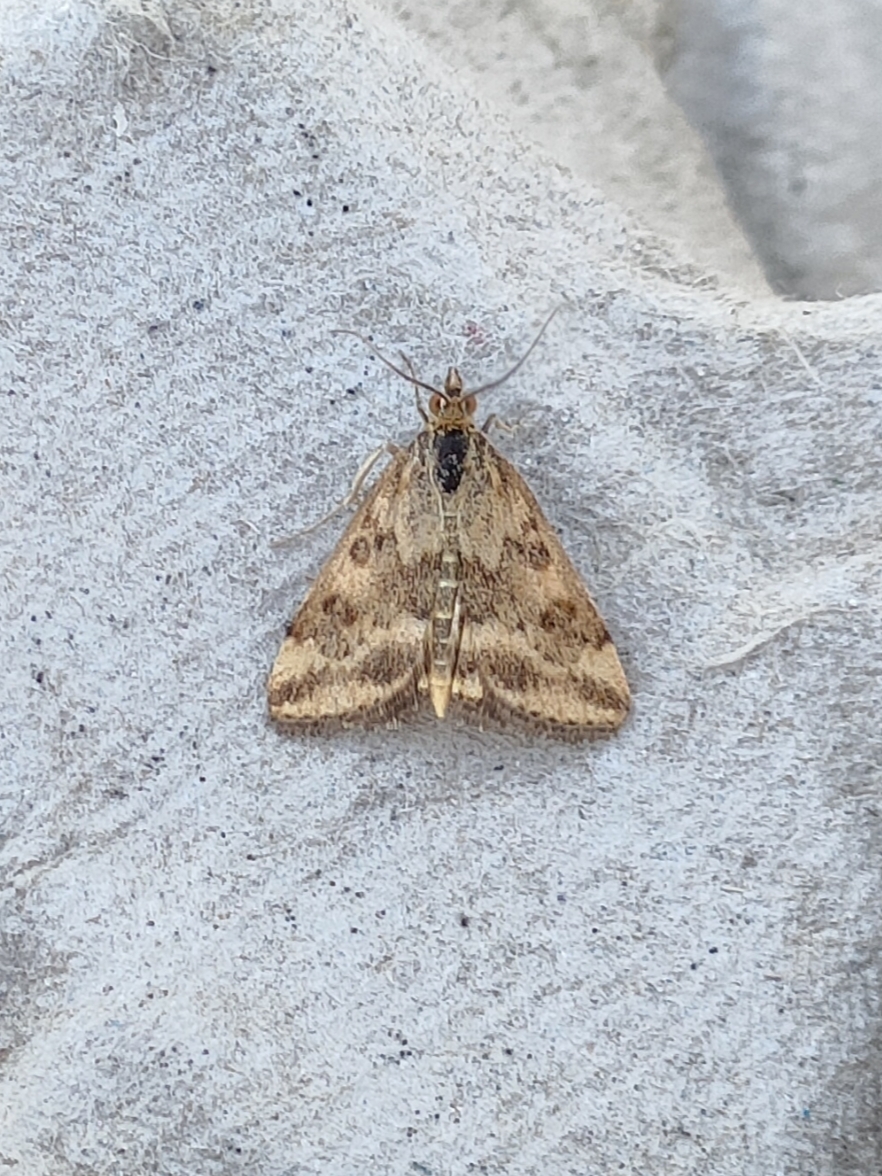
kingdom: Animalia
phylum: Arthropoda
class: Insecta
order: Lepidoptera
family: Crambidae
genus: Pyrausta
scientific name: Pyrausta despicata
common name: Straw-barred pearl
